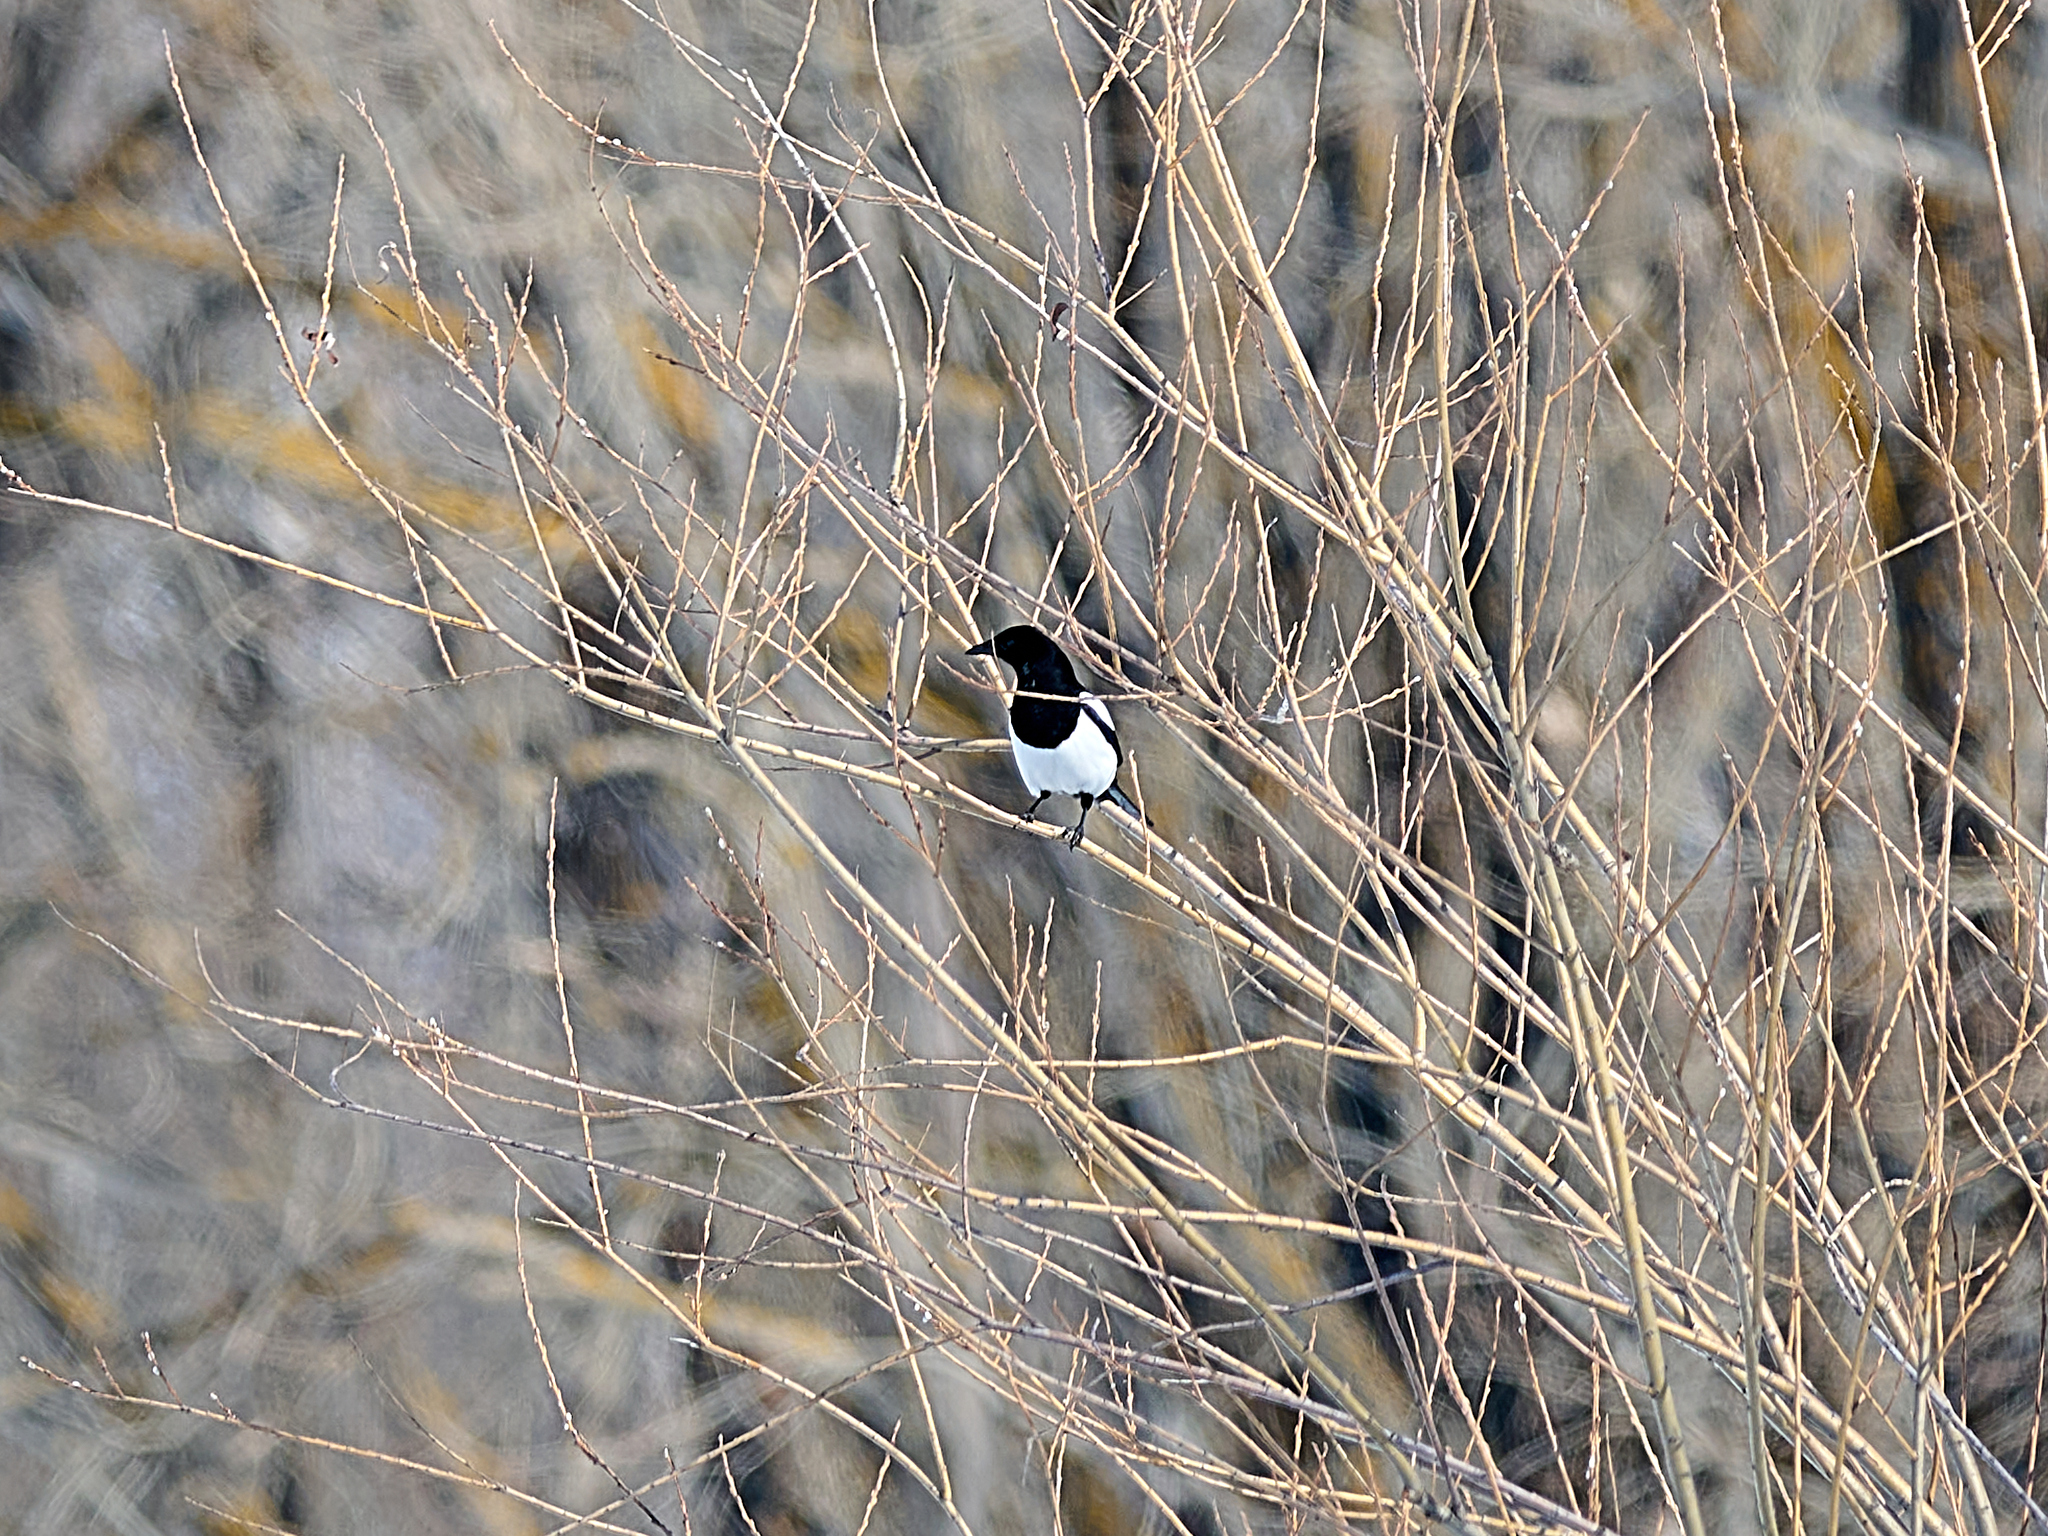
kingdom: Animalia
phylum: Chordata
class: Aves
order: Passeriformes
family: Corvidae
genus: Pica
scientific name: Pica pica
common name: Eurasian magpie
